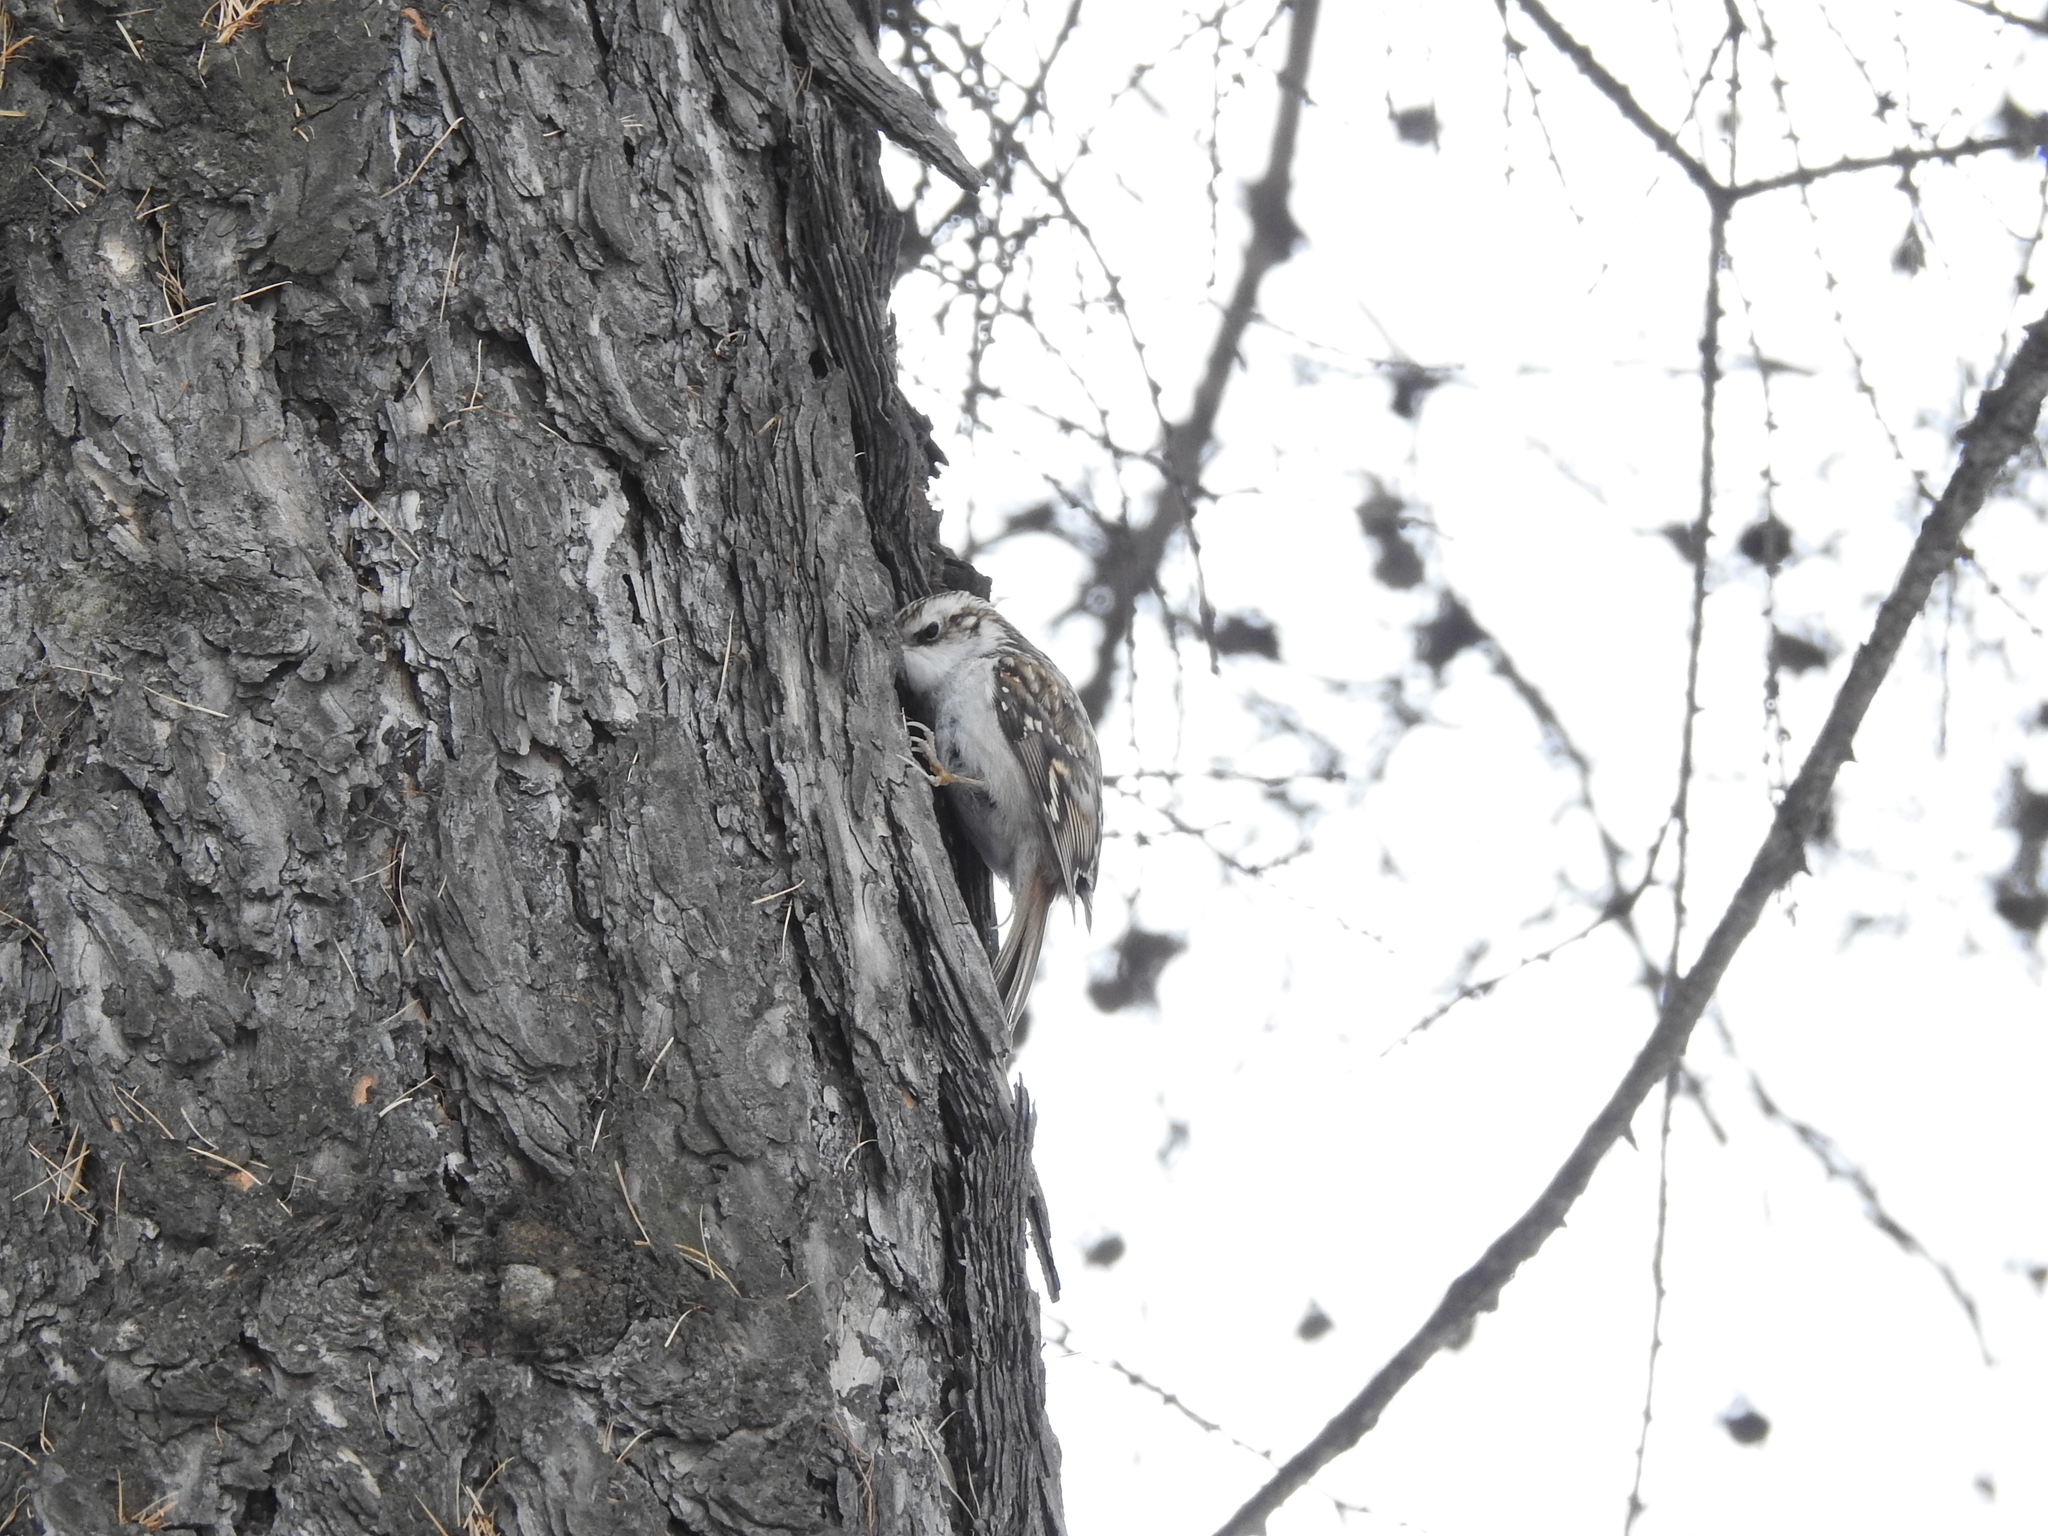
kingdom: Animalia
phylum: Chordata
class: Aves
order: Passeriformes
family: Certhiidae
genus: Certhia
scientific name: Certhia familiaris
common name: Eurasian treecreeper
